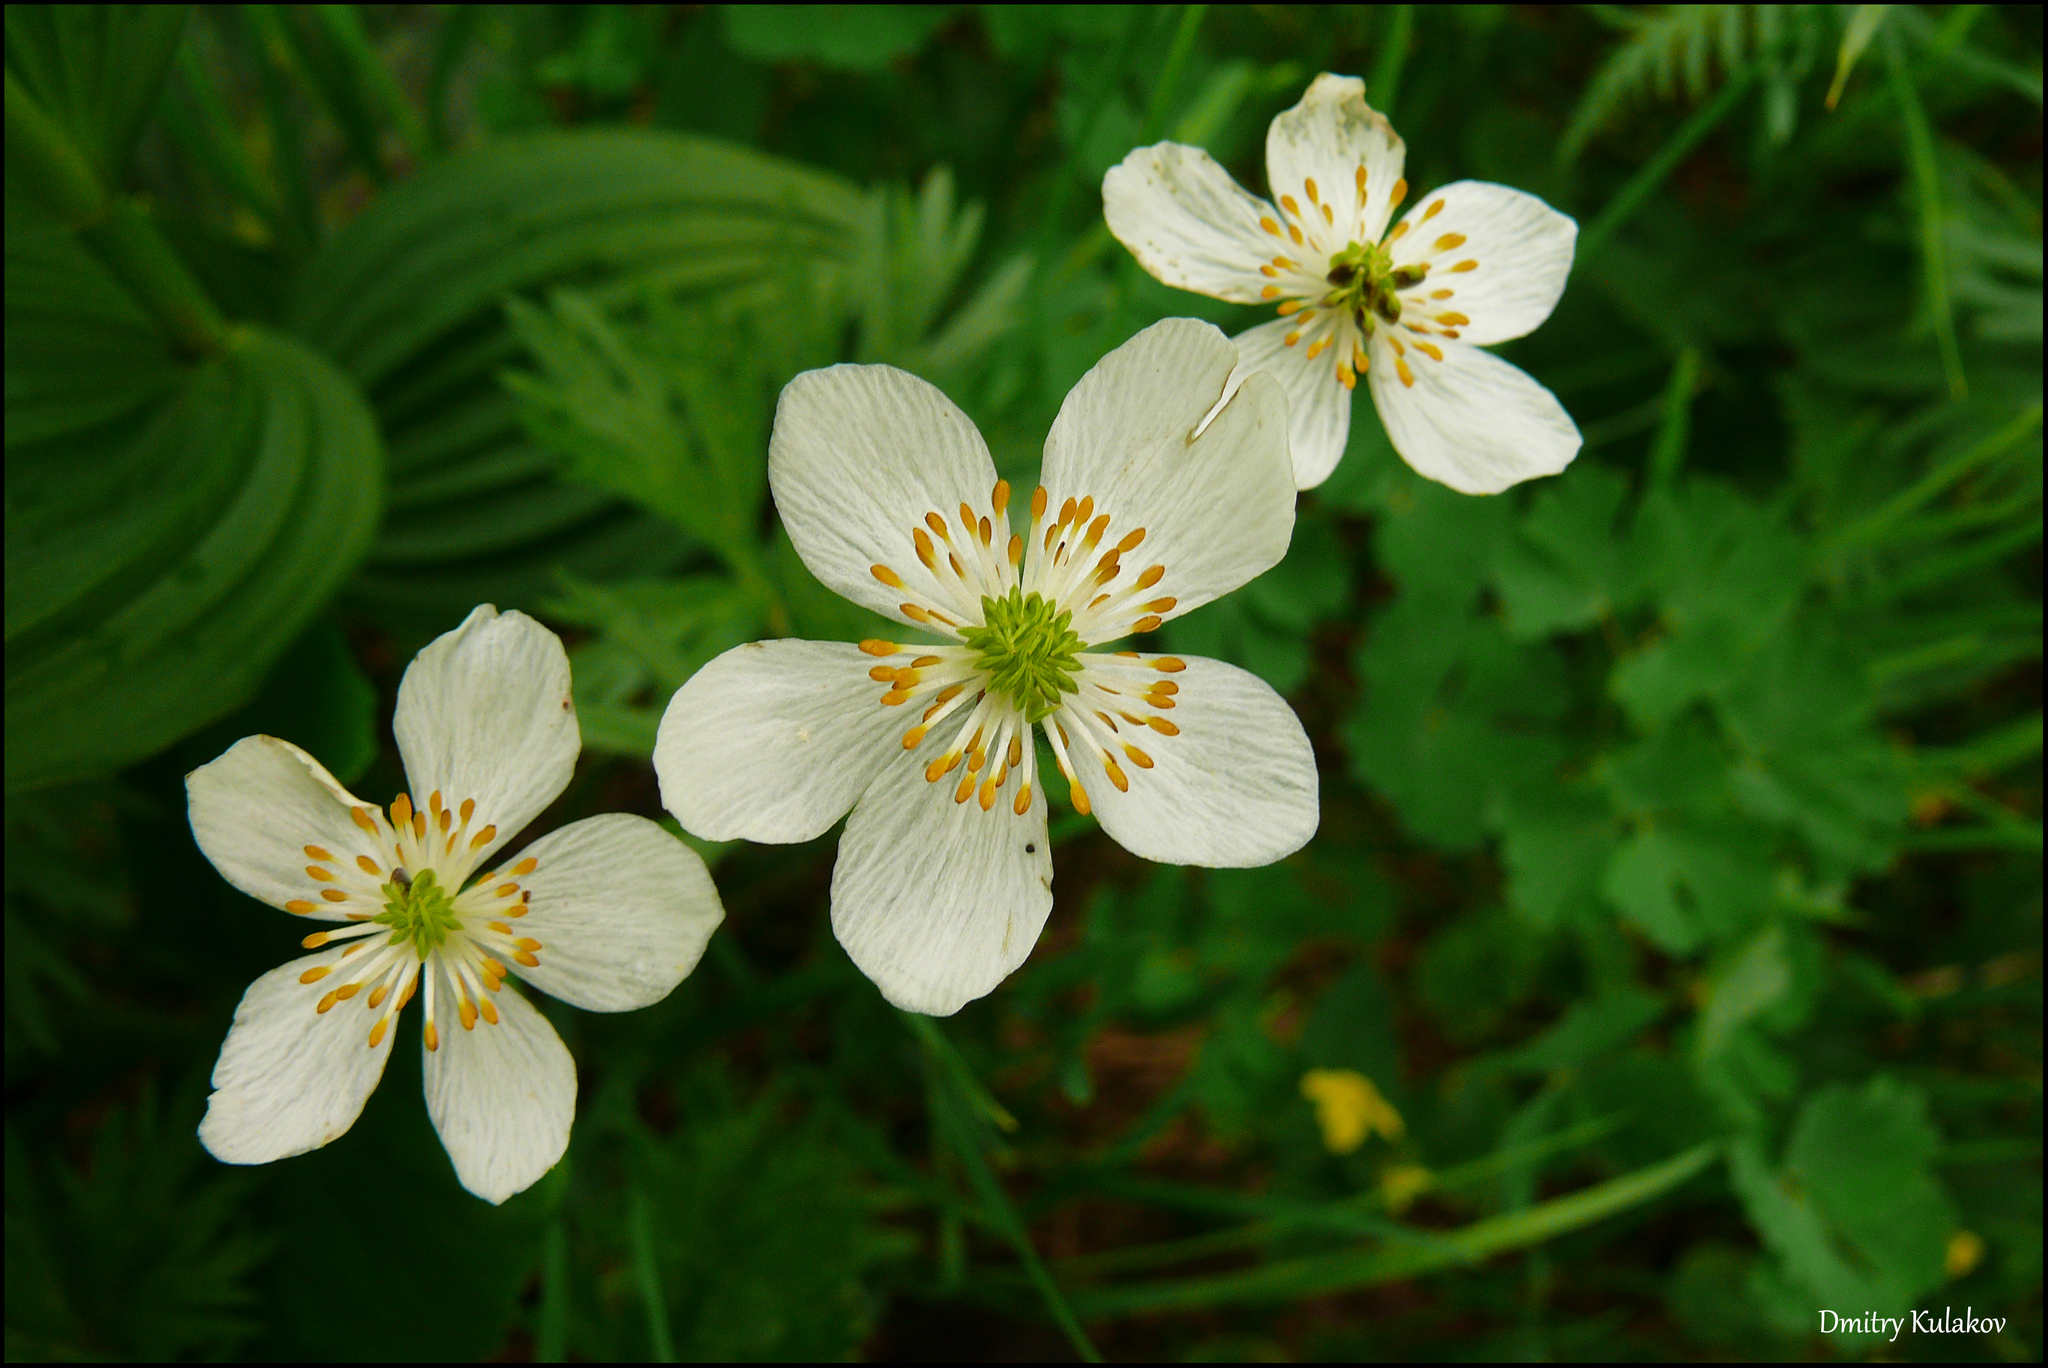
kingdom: Plantae
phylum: Tracheophyta
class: Magnoliopsida
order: Ranunculales
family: Ranunculaceae
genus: Anemonastrum
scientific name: Anemonastrum narcissiflorum
